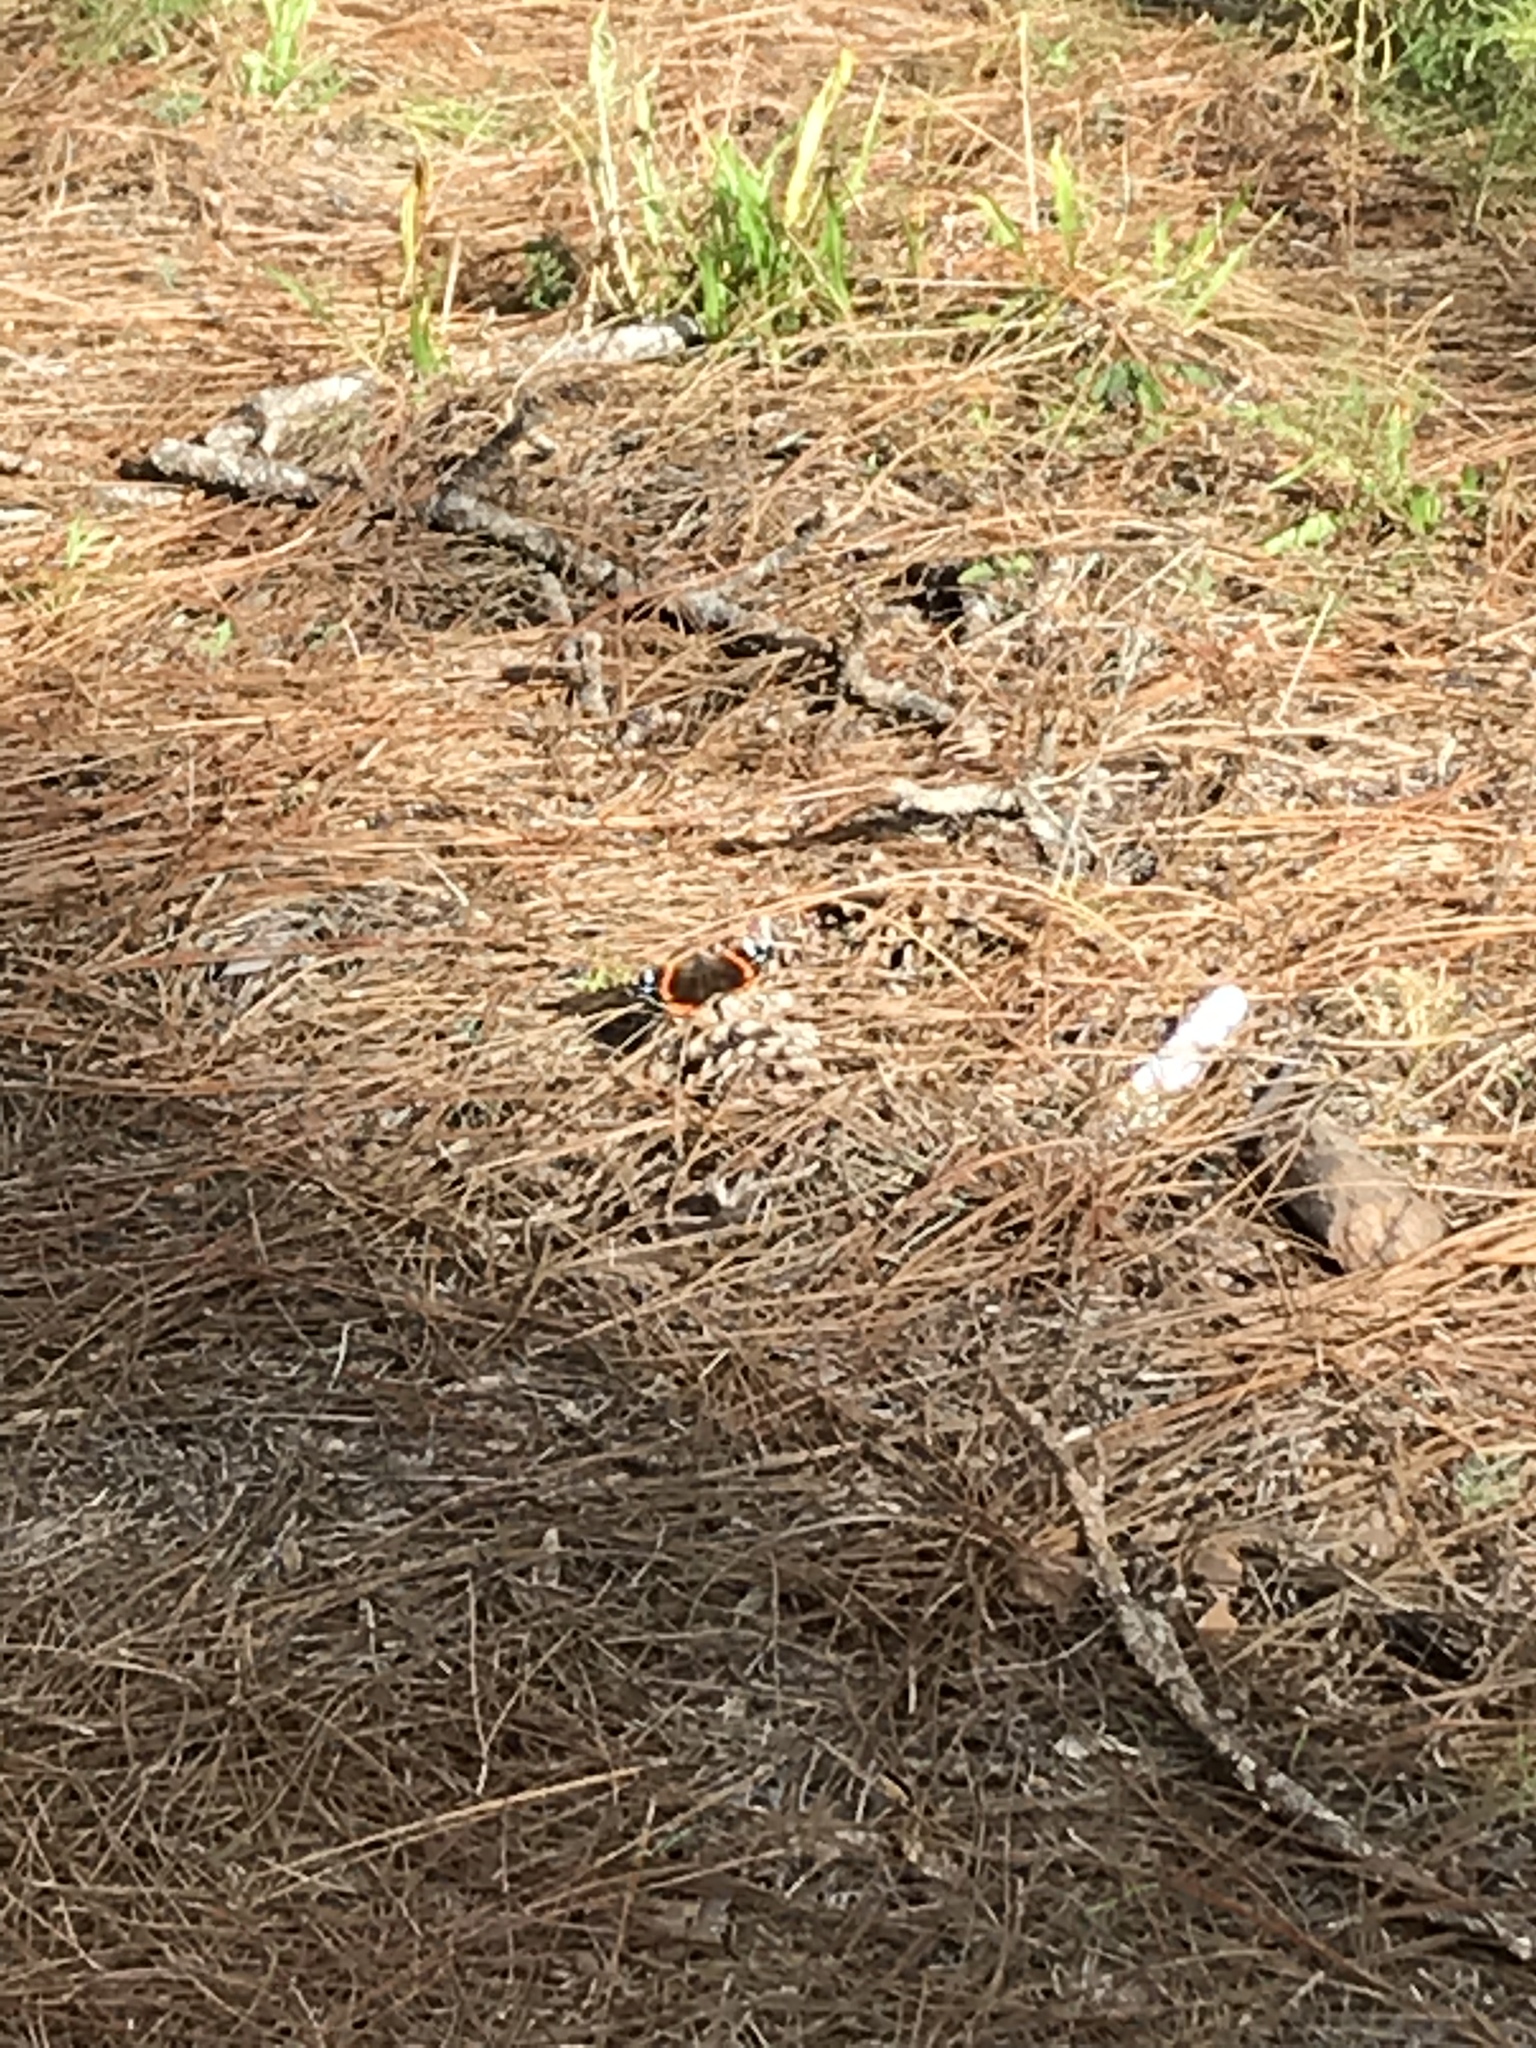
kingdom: Animalia
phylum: Arthropoda
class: Insecta
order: Lepidoptera
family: Nymphalidae
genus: Vanessa
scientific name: Vanessa atalanta
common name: Red admiral
